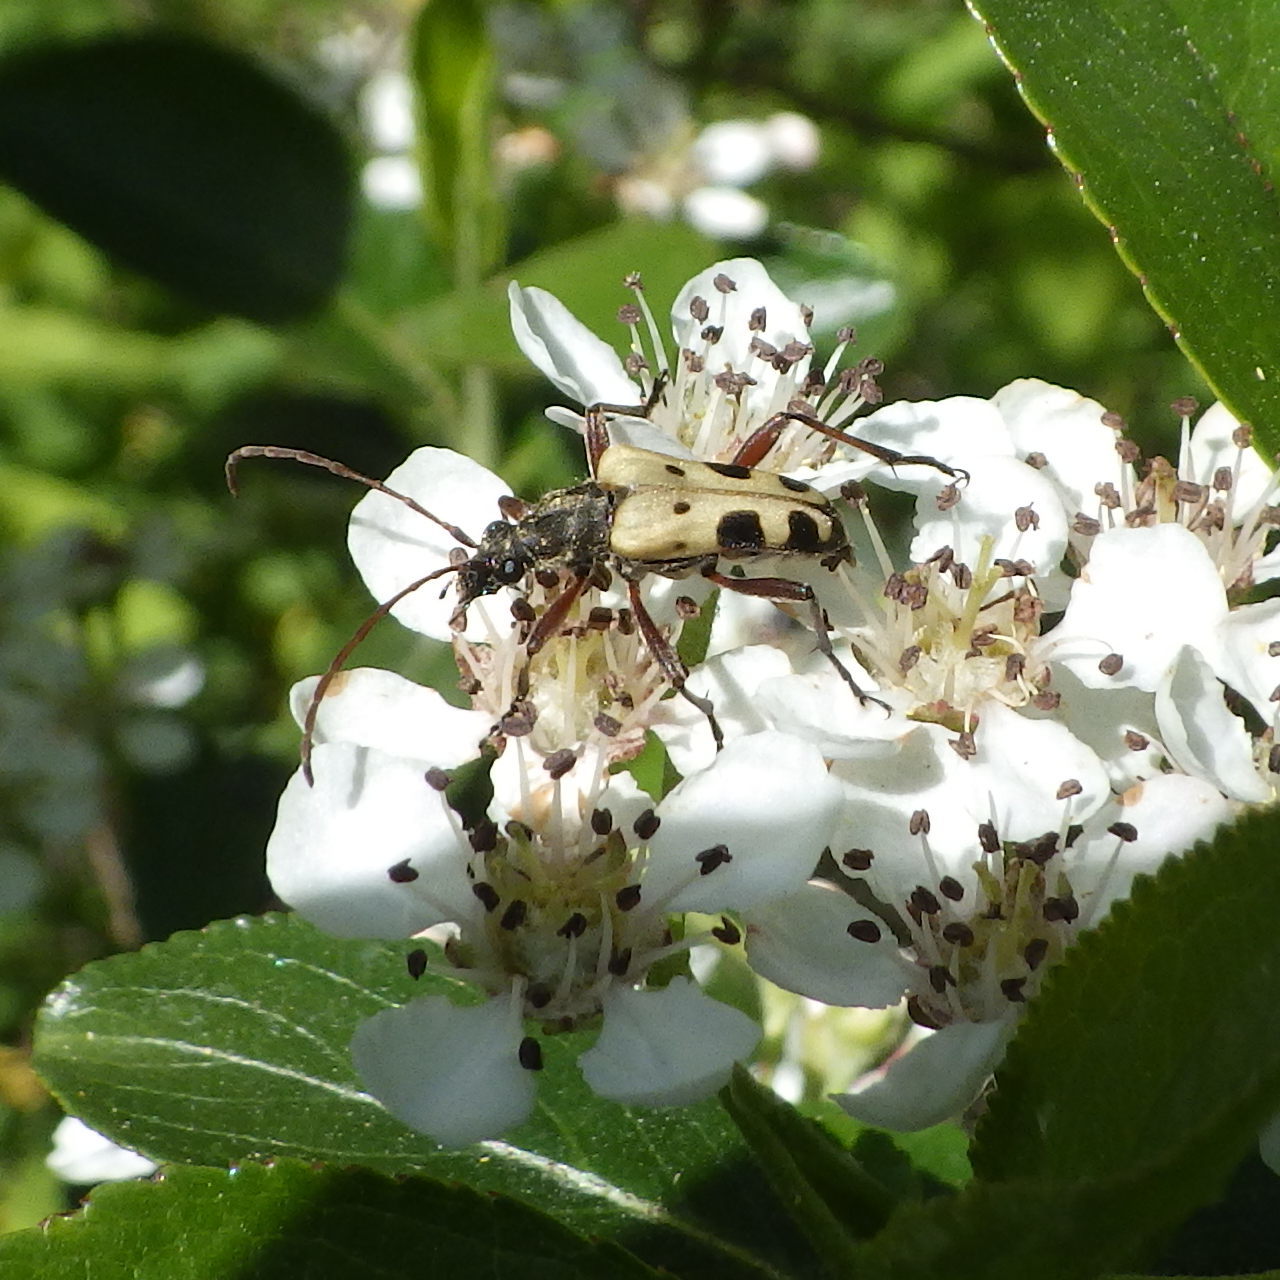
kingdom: Animalia
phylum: Arthropoda
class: Insecta
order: Coleoptera
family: Cerambycidae
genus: Evodinus
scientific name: Evodinus monticola
